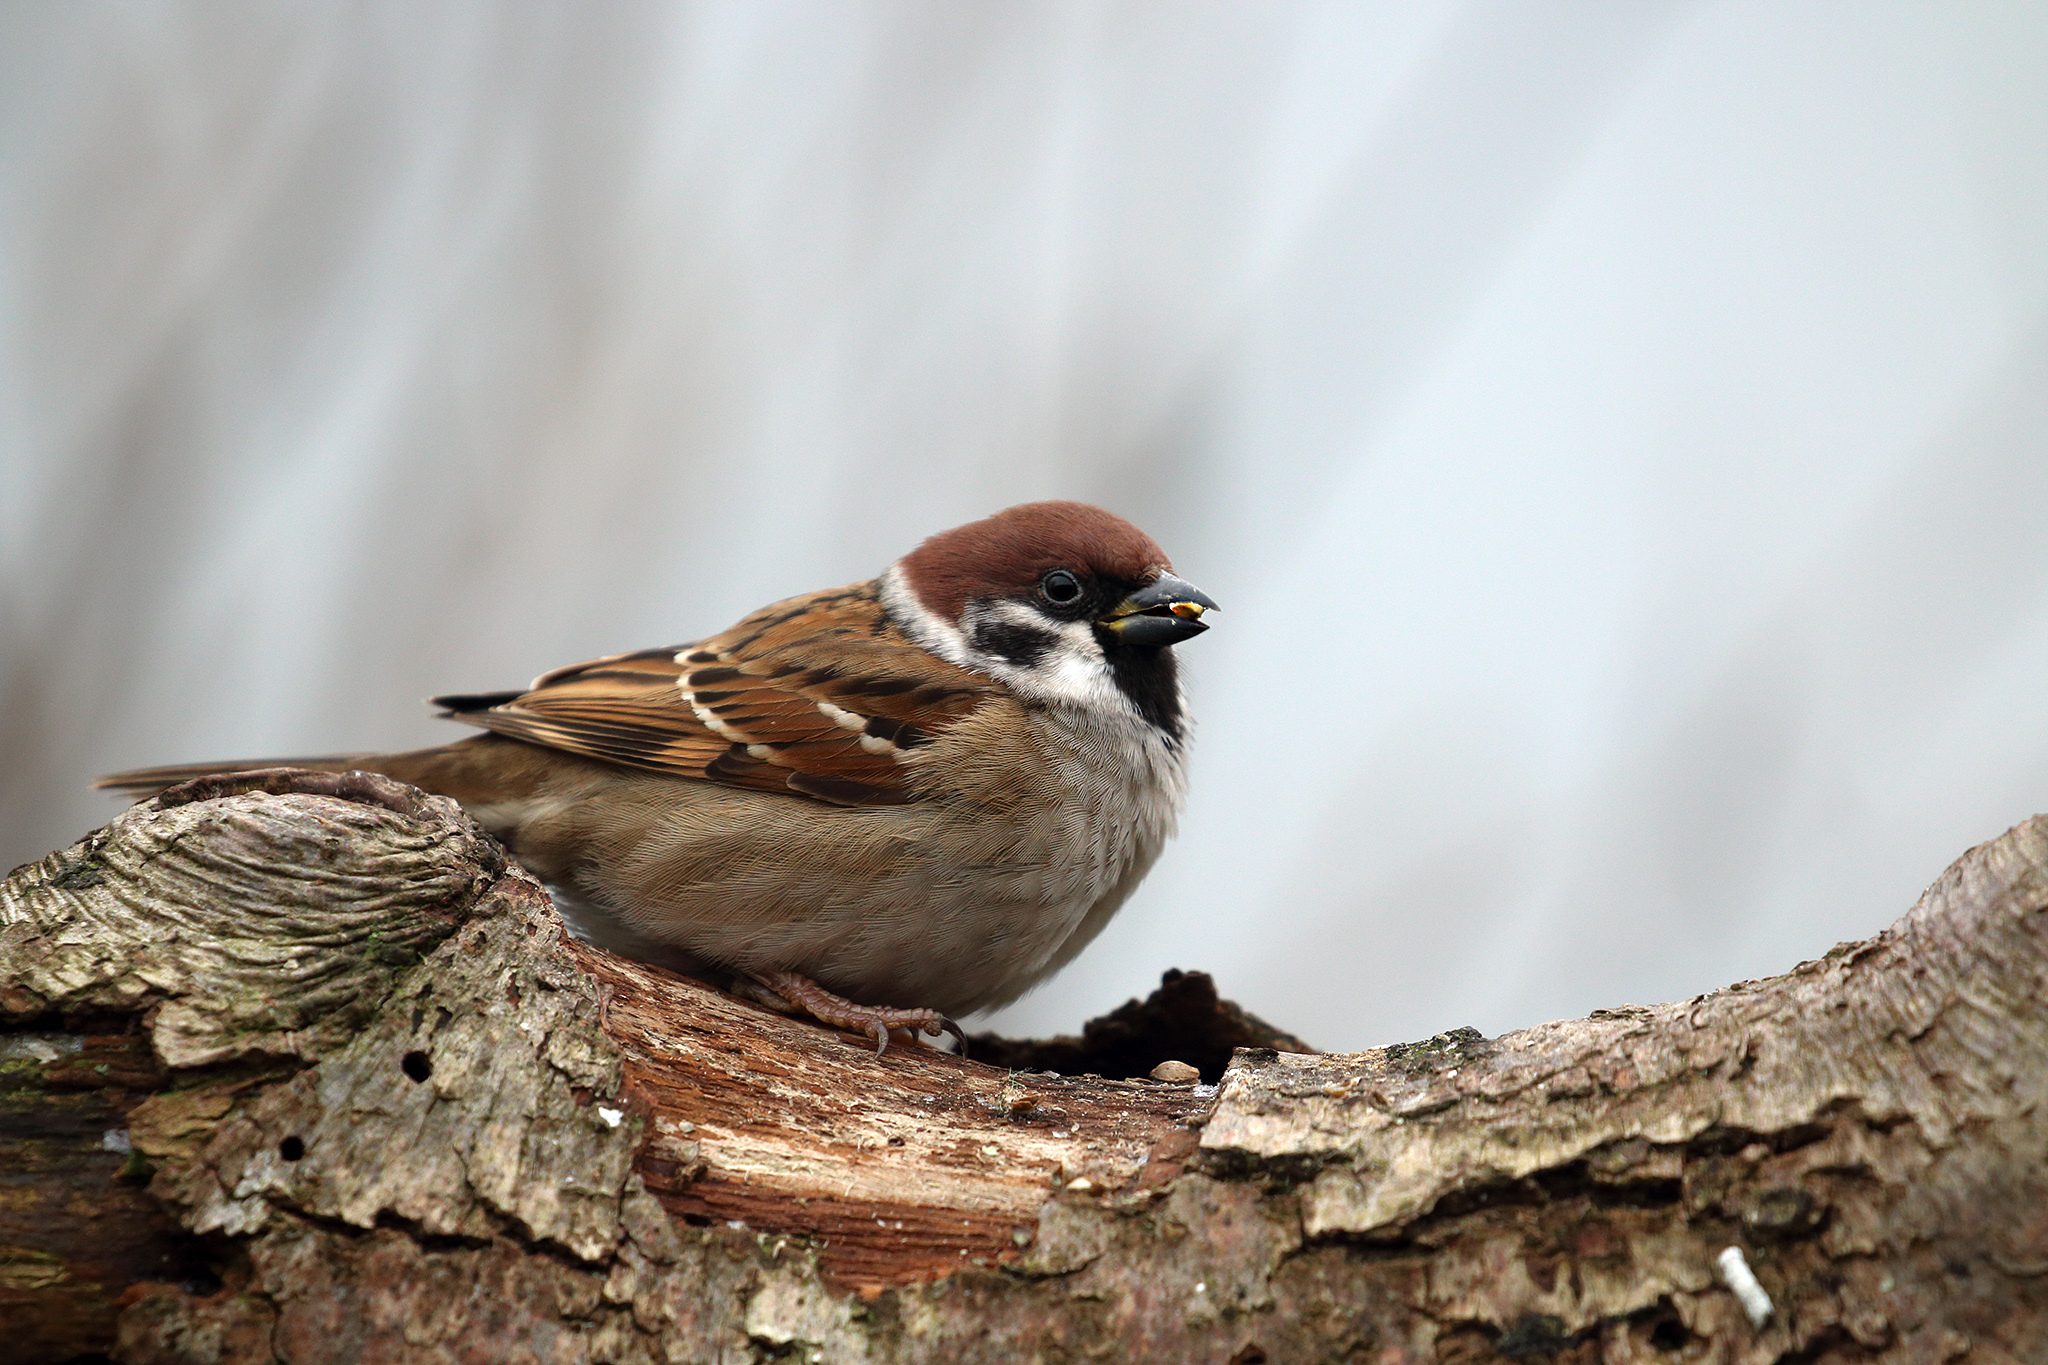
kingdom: Animalia
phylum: Chordata
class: Aves
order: Passeriformes
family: Passeridae
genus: Passer
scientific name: Passer montanus
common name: Eurasian tree sparrow
